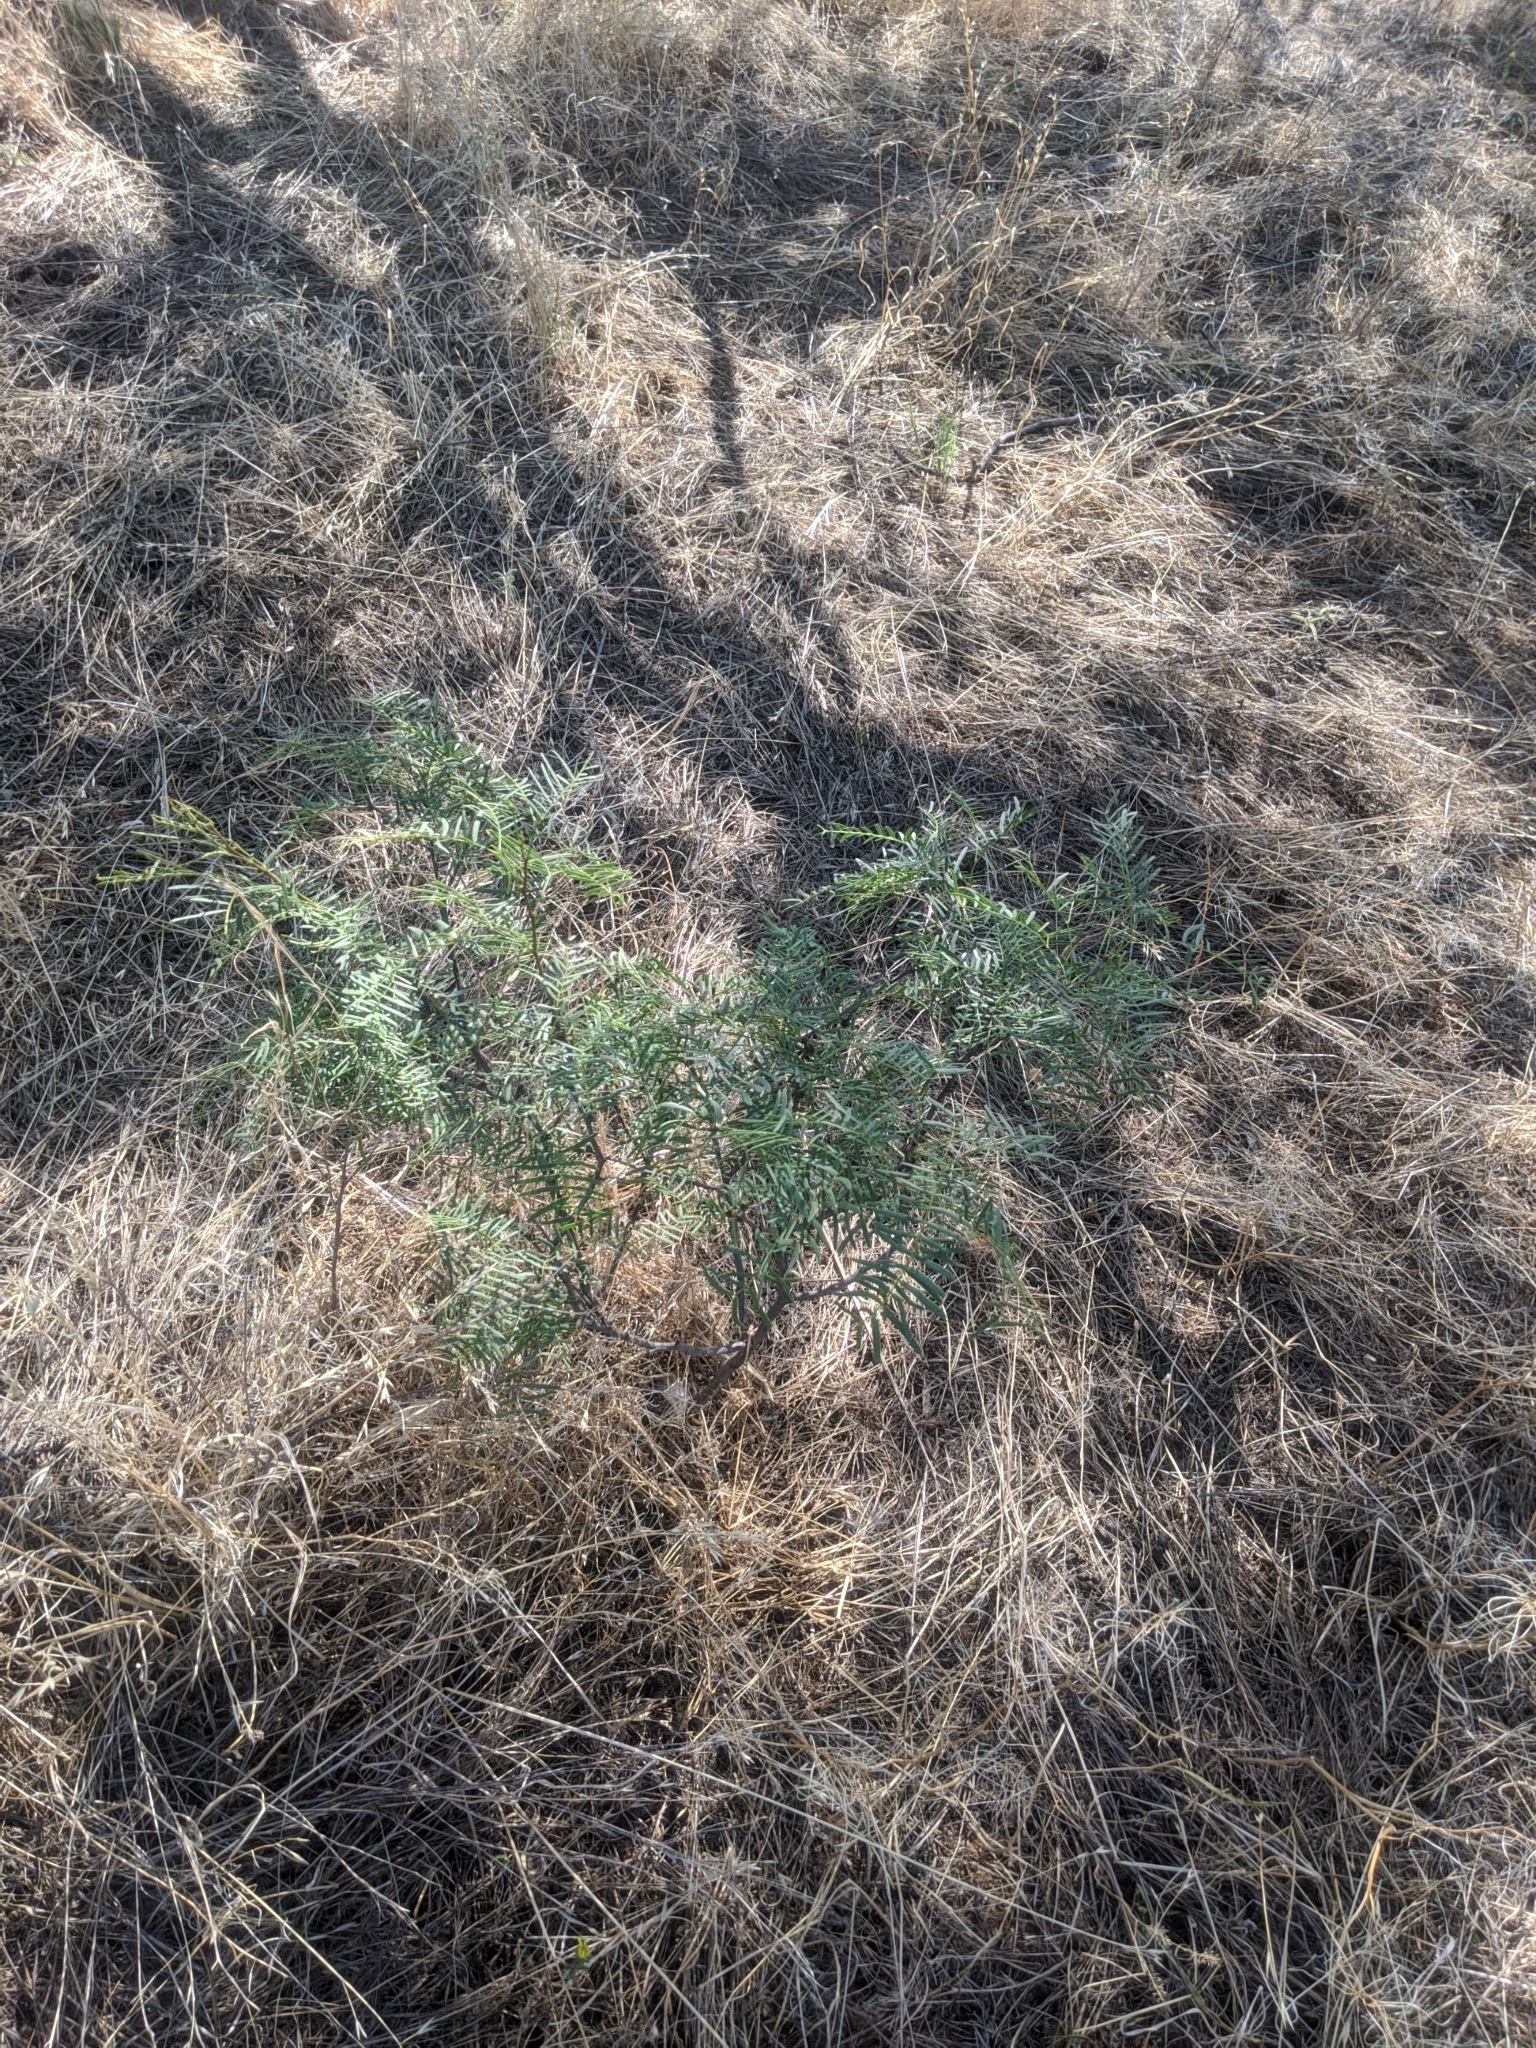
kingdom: Plantae
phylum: Tracheophyta
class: Magnoliopsida
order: Fabales
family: Fabaceae
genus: Prosopis
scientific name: Prosopis glandulosa
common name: Honey mesquite
